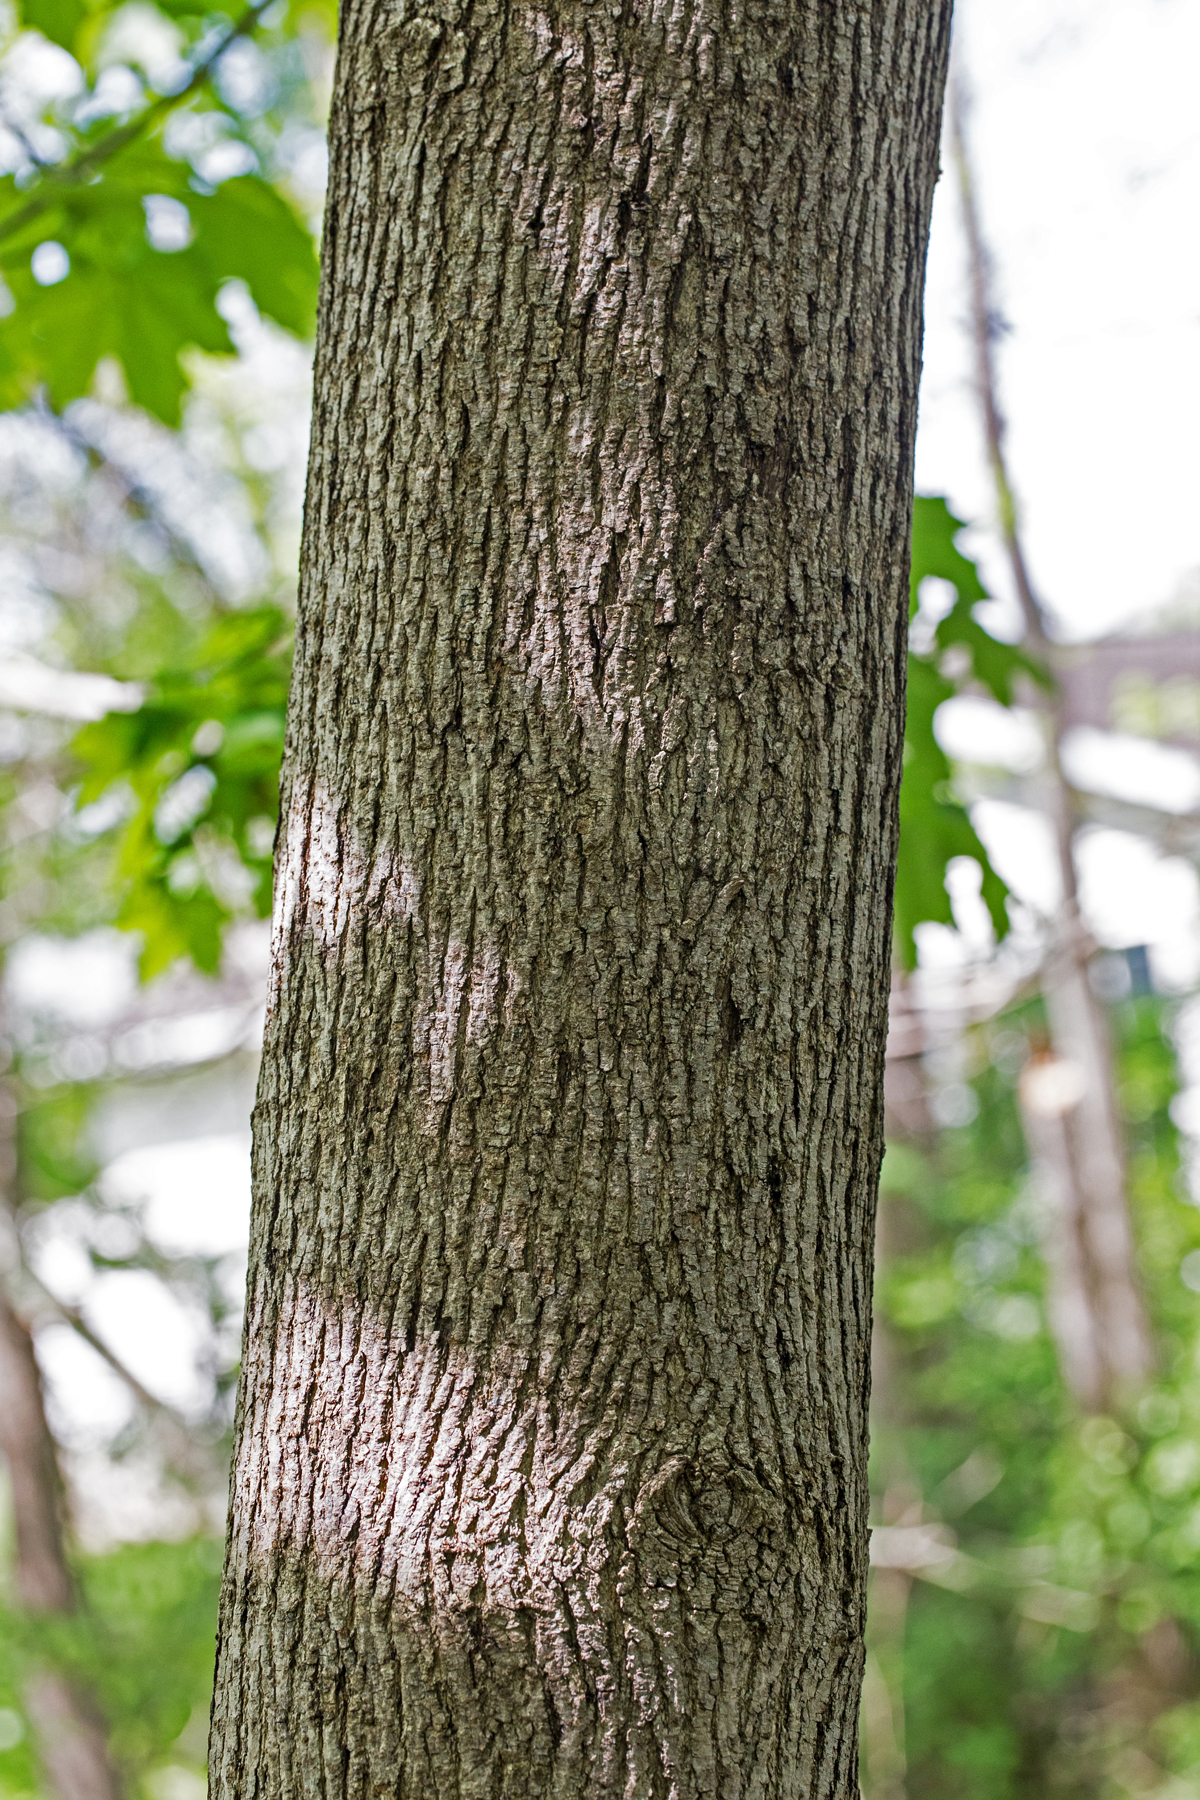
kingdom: Plantae
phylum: Tracheophyta
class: Magnoliopsida
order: Sapindales
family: Sapindaceae
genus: Acer
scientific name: Acer platanoides
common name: Norway maple
